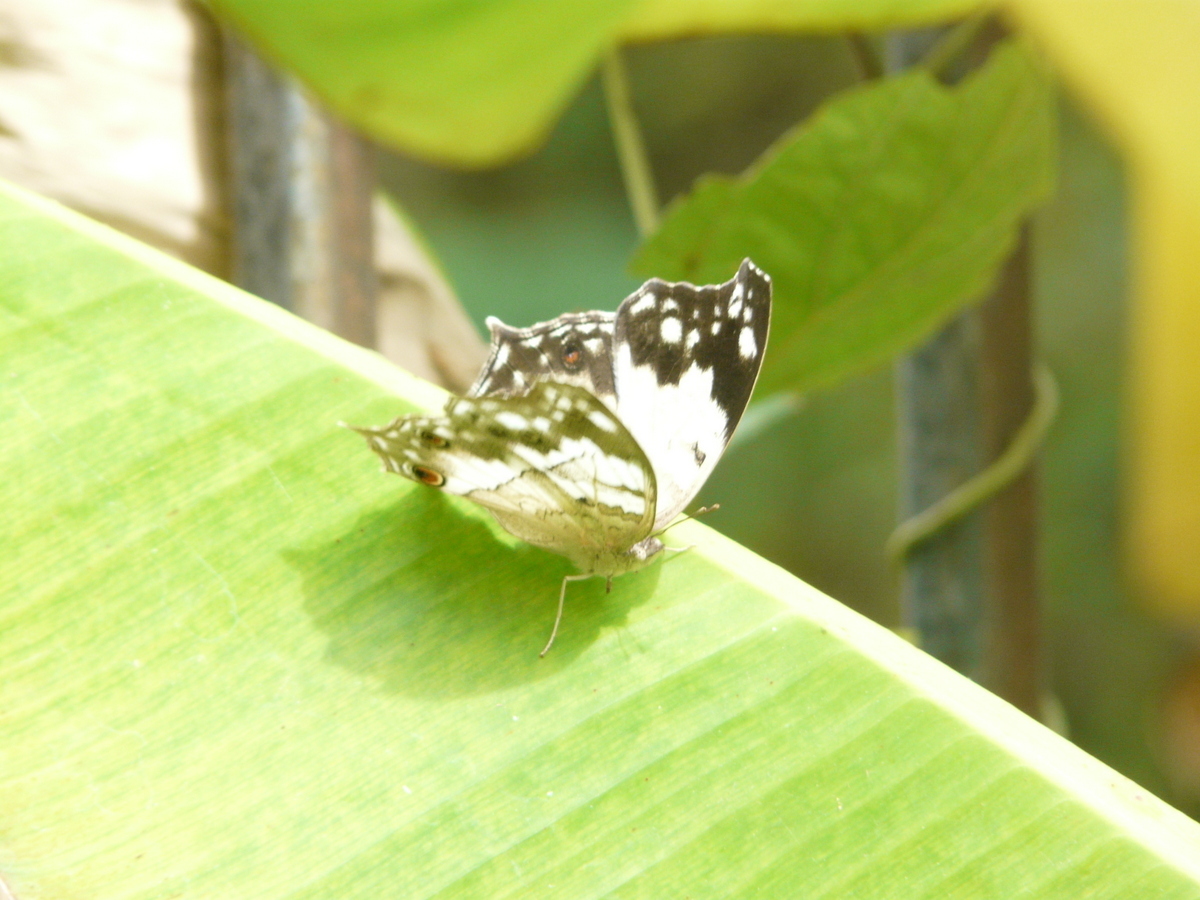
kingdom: Animalia
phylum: Arthropoda
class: Insecta
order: Lepidoptera
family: Nymphalidae
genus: Salamis
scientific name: Salamis
